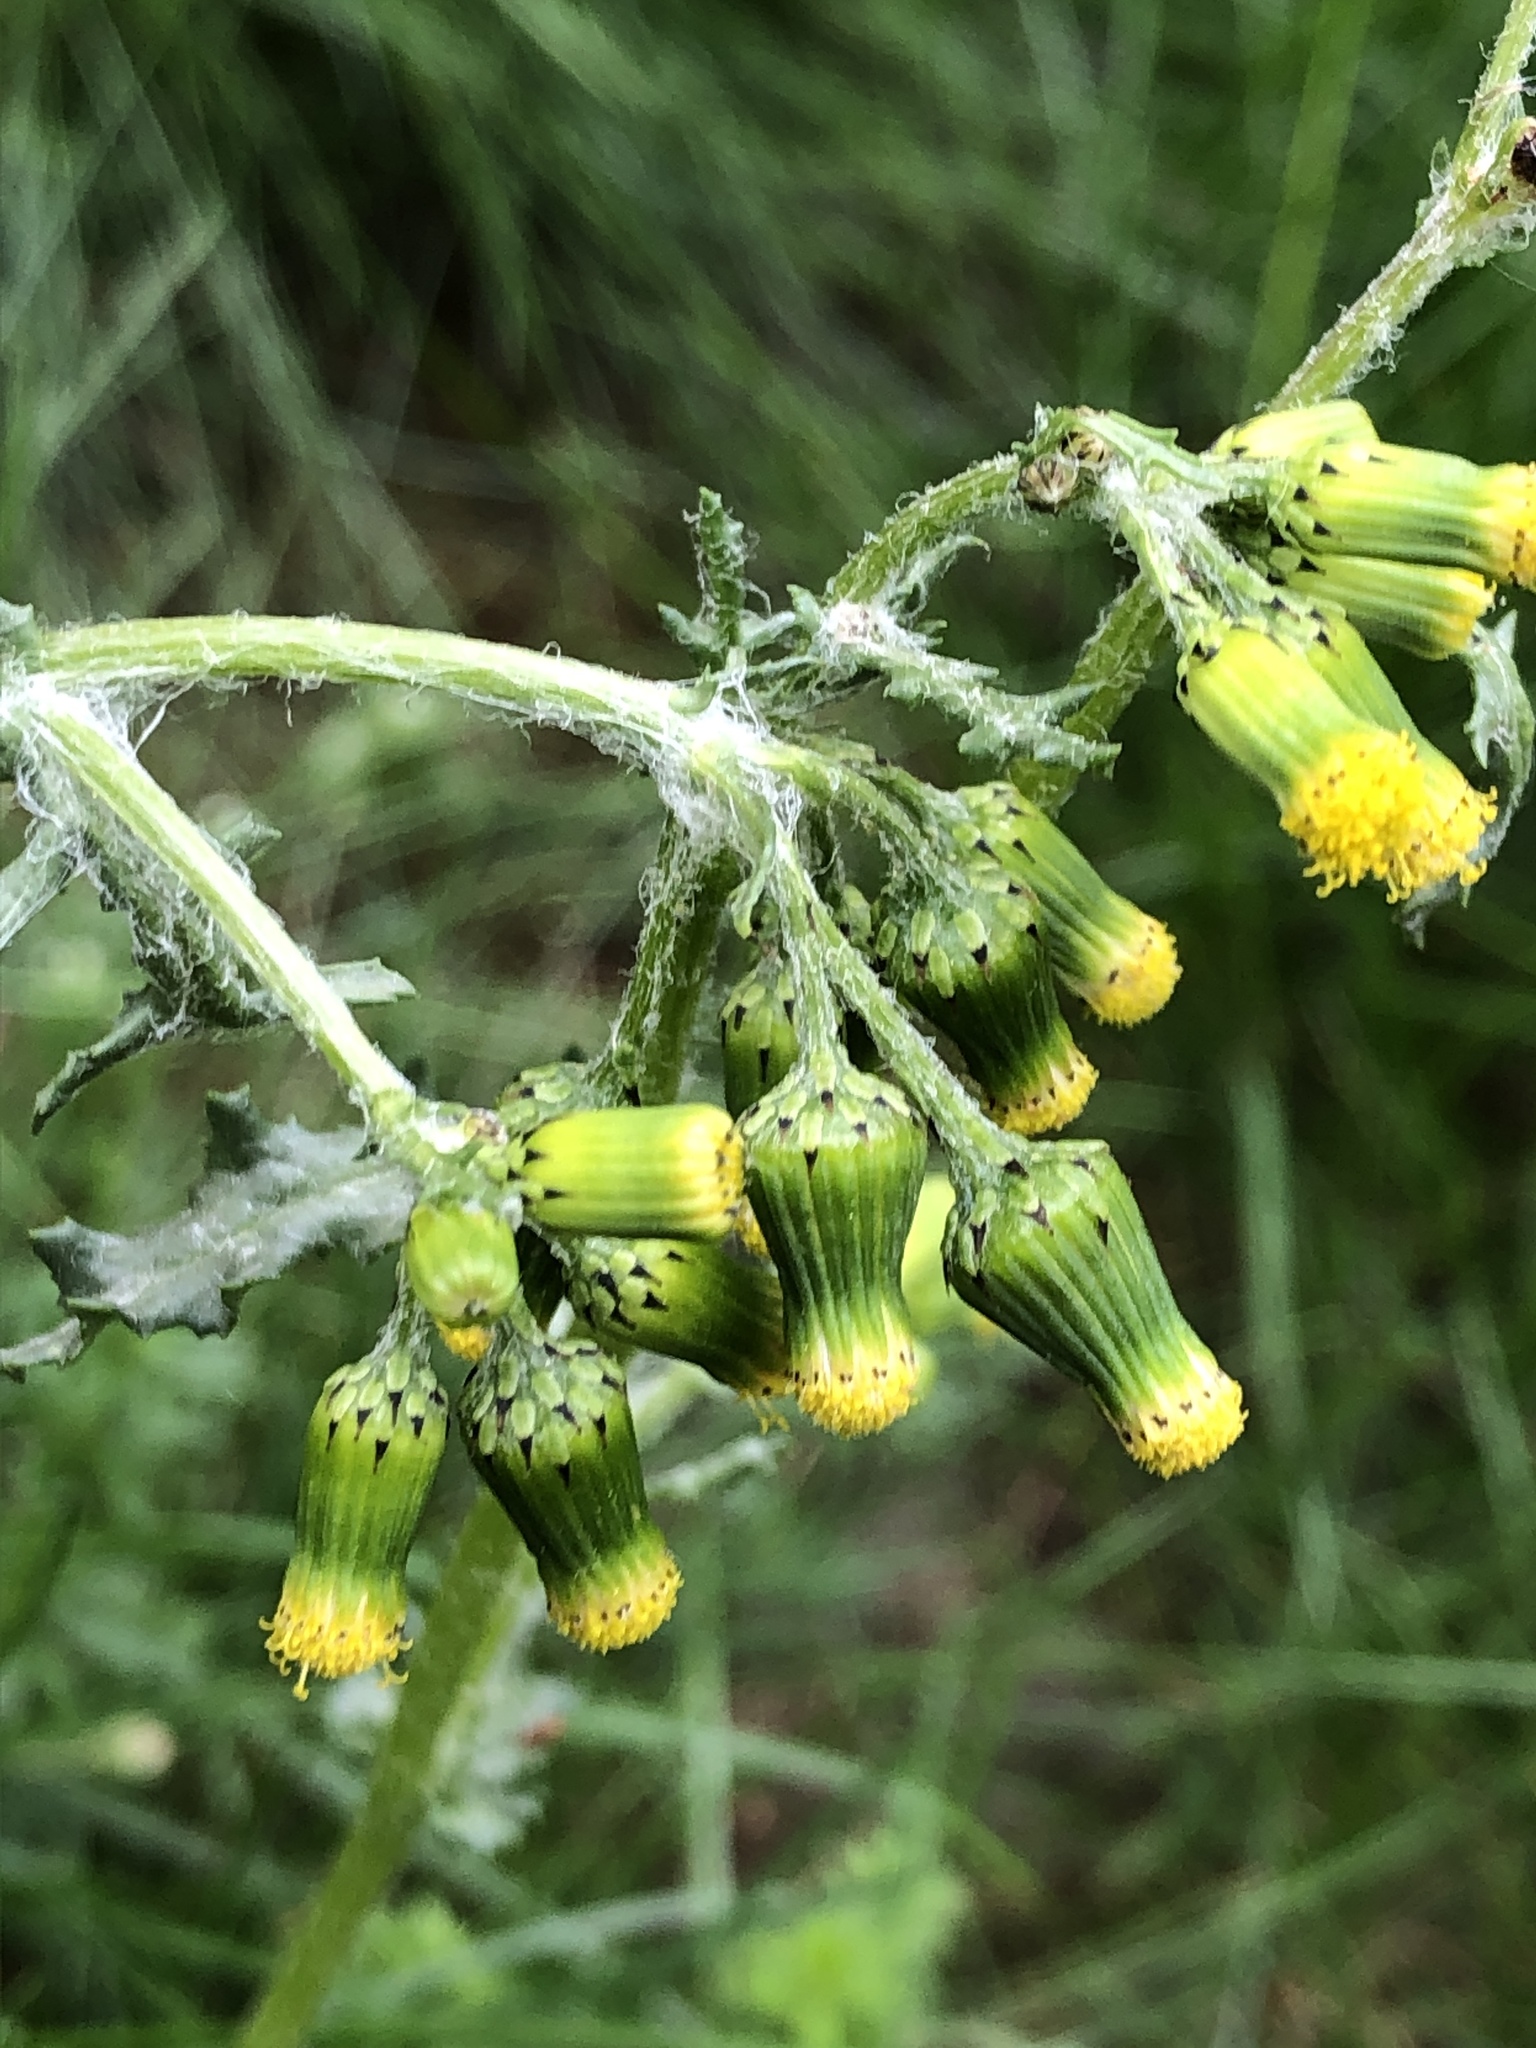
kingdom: Plantae
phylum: Tracheophyta
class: Magnoliopsida
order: Asterales
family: Asteraceae
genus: Senecio
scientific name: Senecio vulgaris
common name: Old-man-in-the-spring
